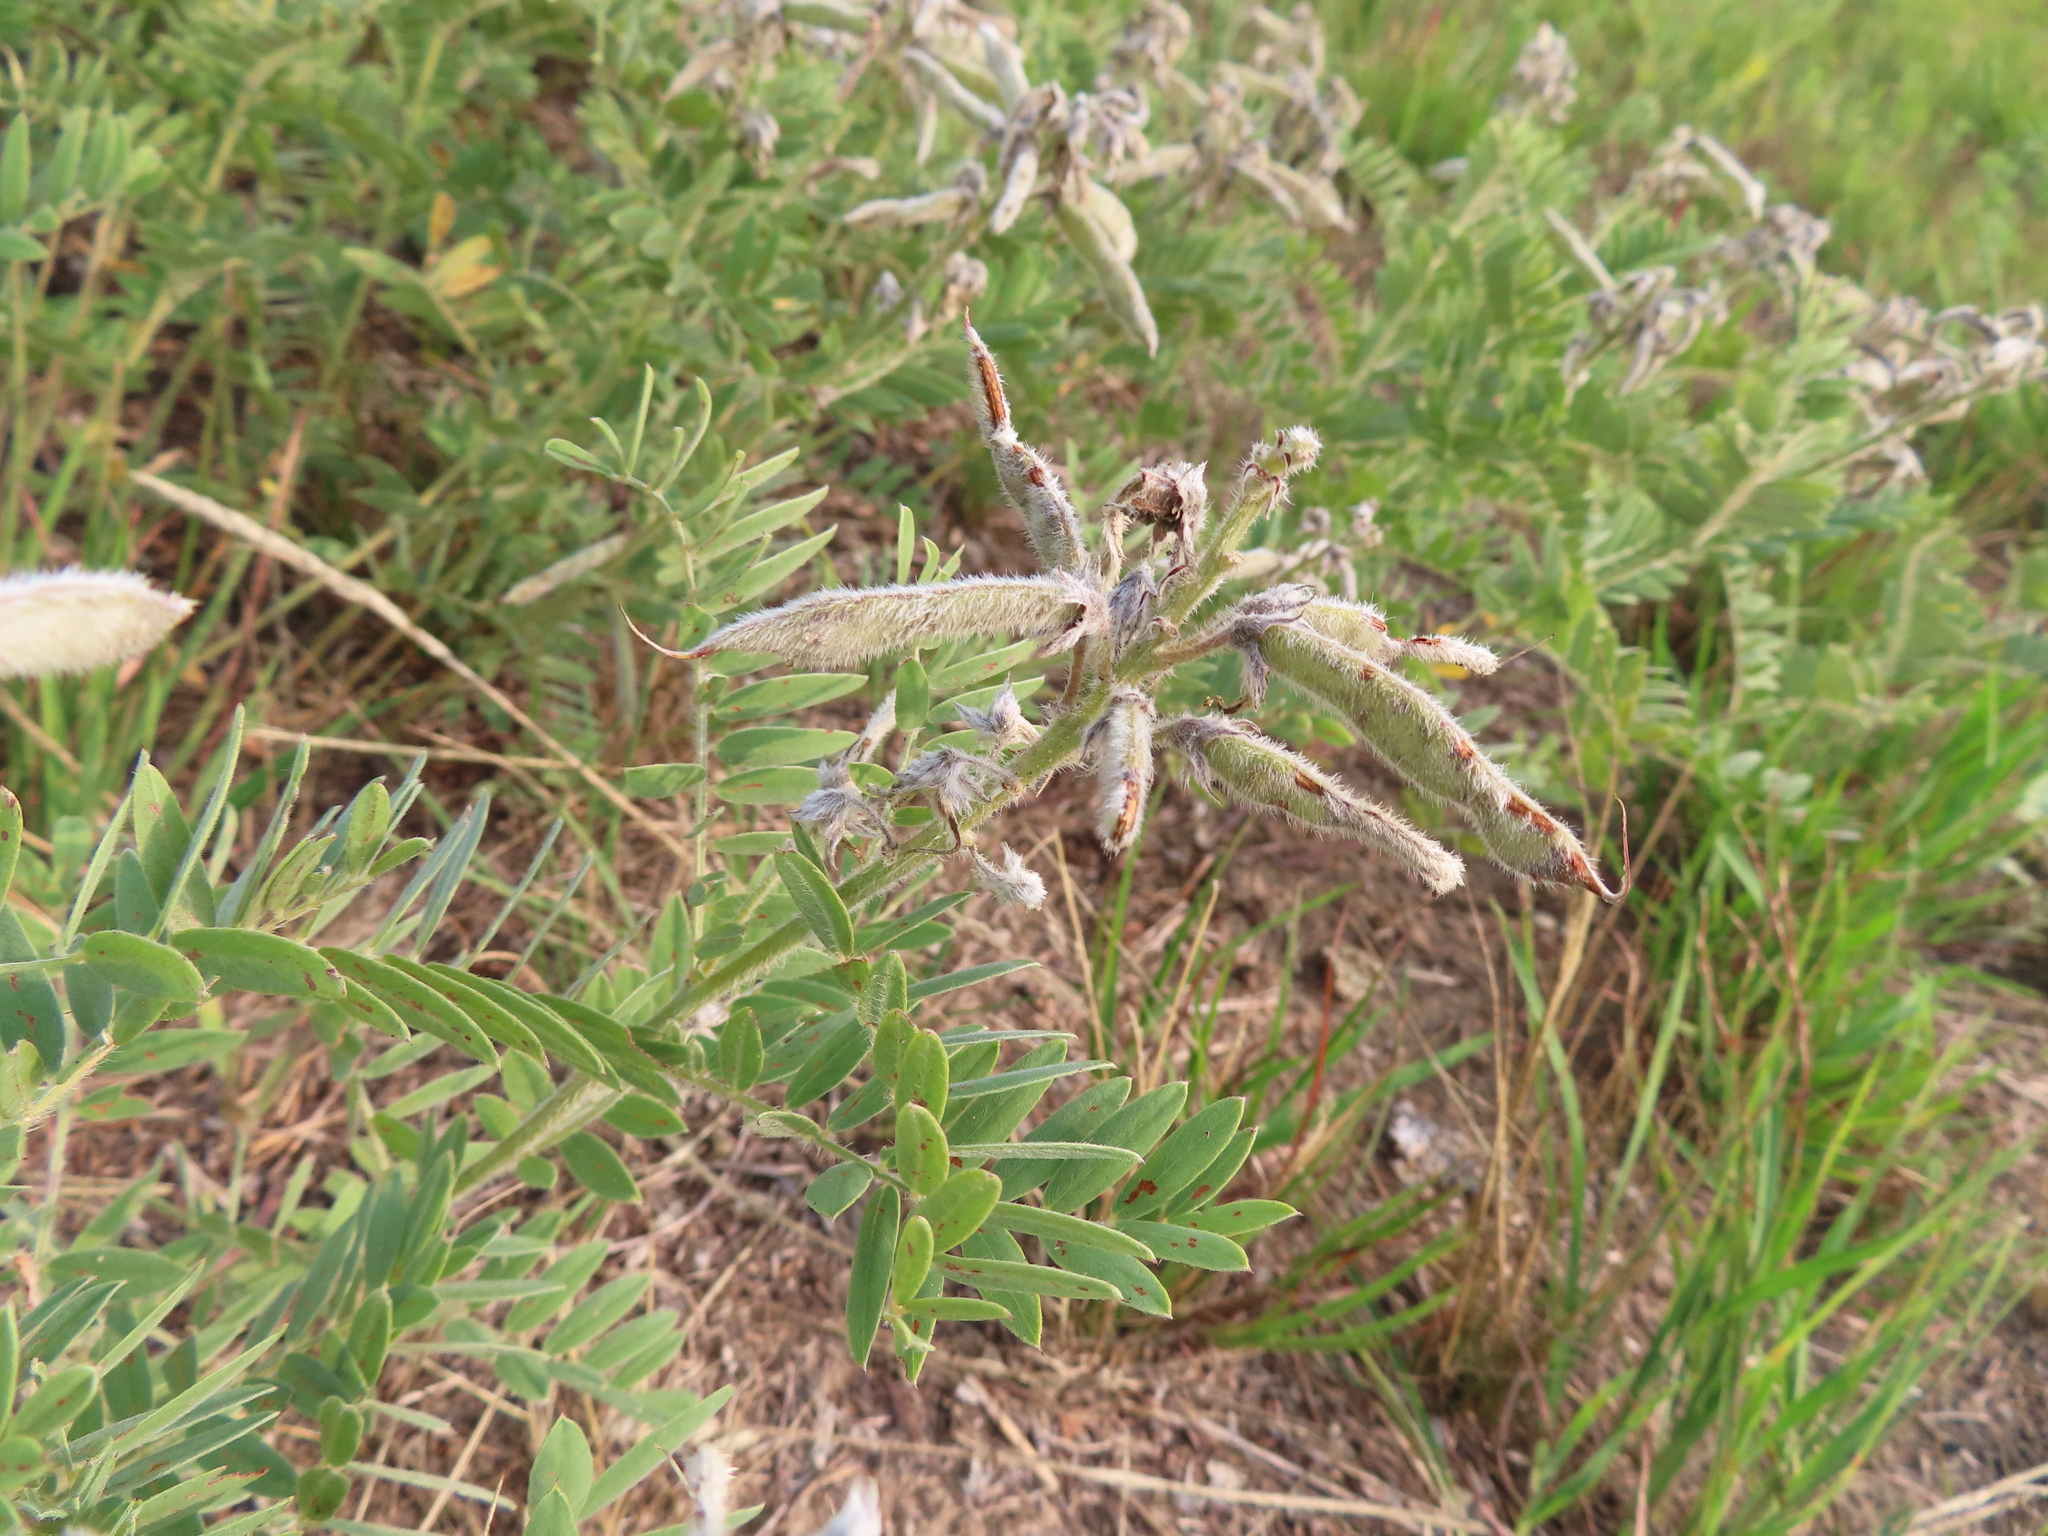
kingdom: Plantae
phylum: Tracheophyta
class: Magnoliopsida
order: Fabales
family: Fabaceae
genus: Tephrosia
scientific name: Tephrosia virginiana
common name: Rabbit-pea
